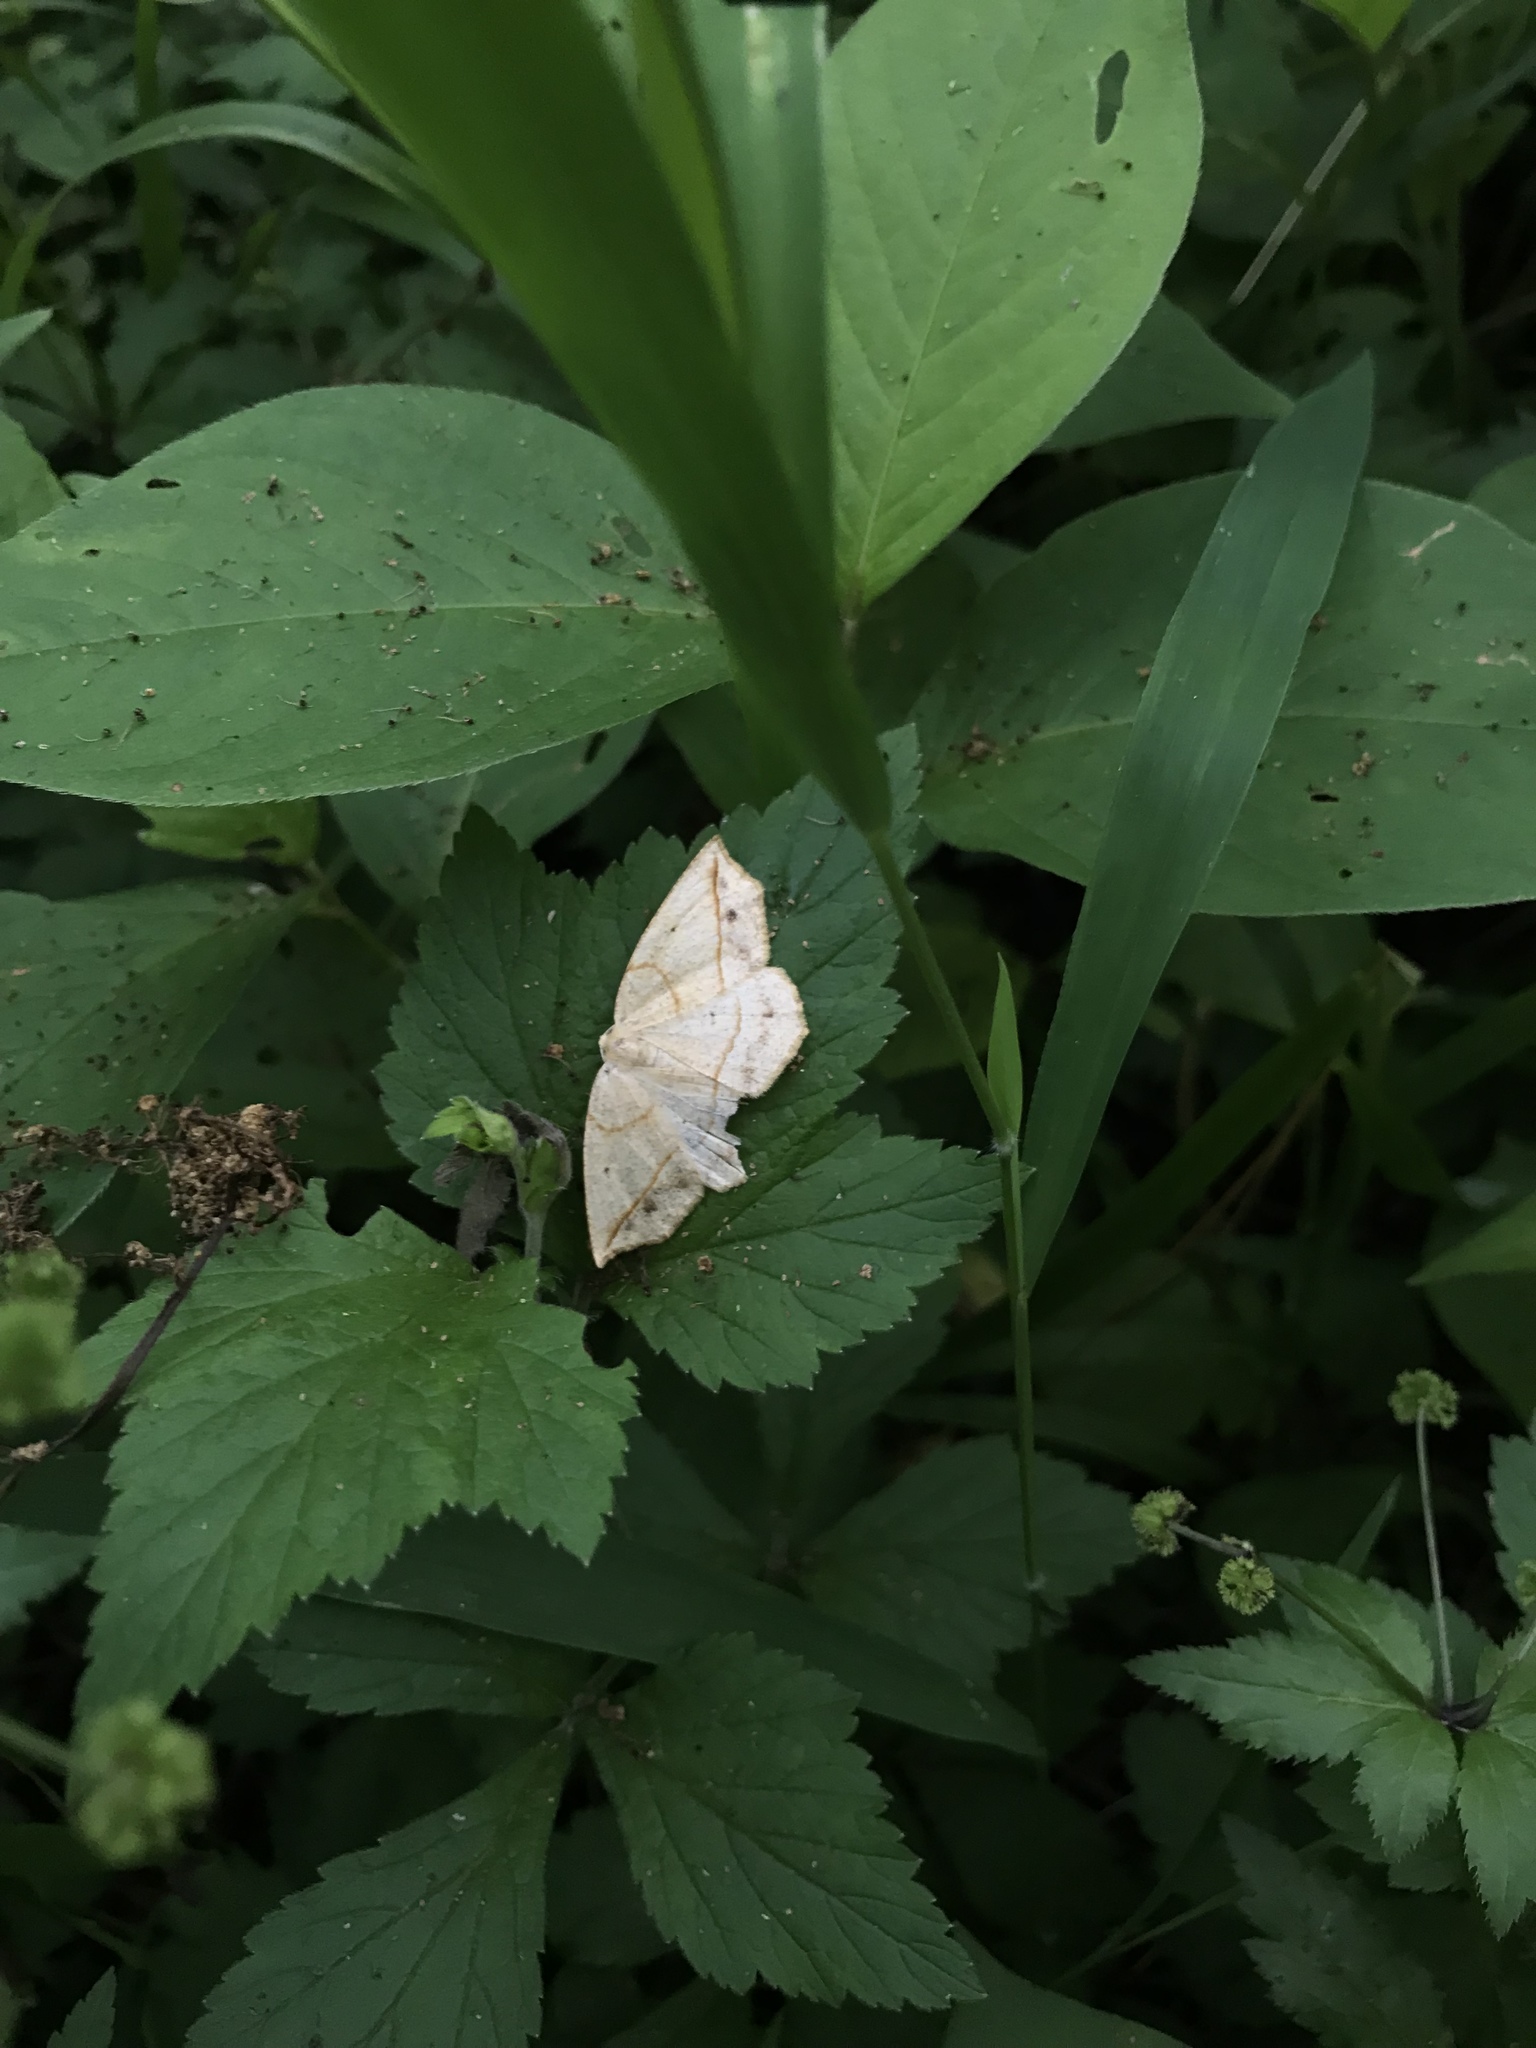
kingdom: Animalia
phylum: Arthropoda
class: Insecta
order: Lepidoptera
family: Geometridae
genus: Eusarca
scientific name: Eusarca confusaria
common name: Confused eusarca
